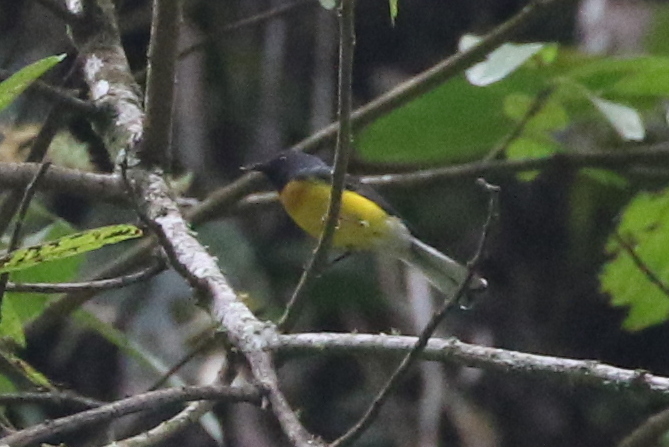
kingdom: Animalia
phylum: Chordata
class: Aves
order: Passeriformes
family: Parulidae
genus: Myioborus
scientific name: Myioborus miniatus
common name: Slate-throated redstart
